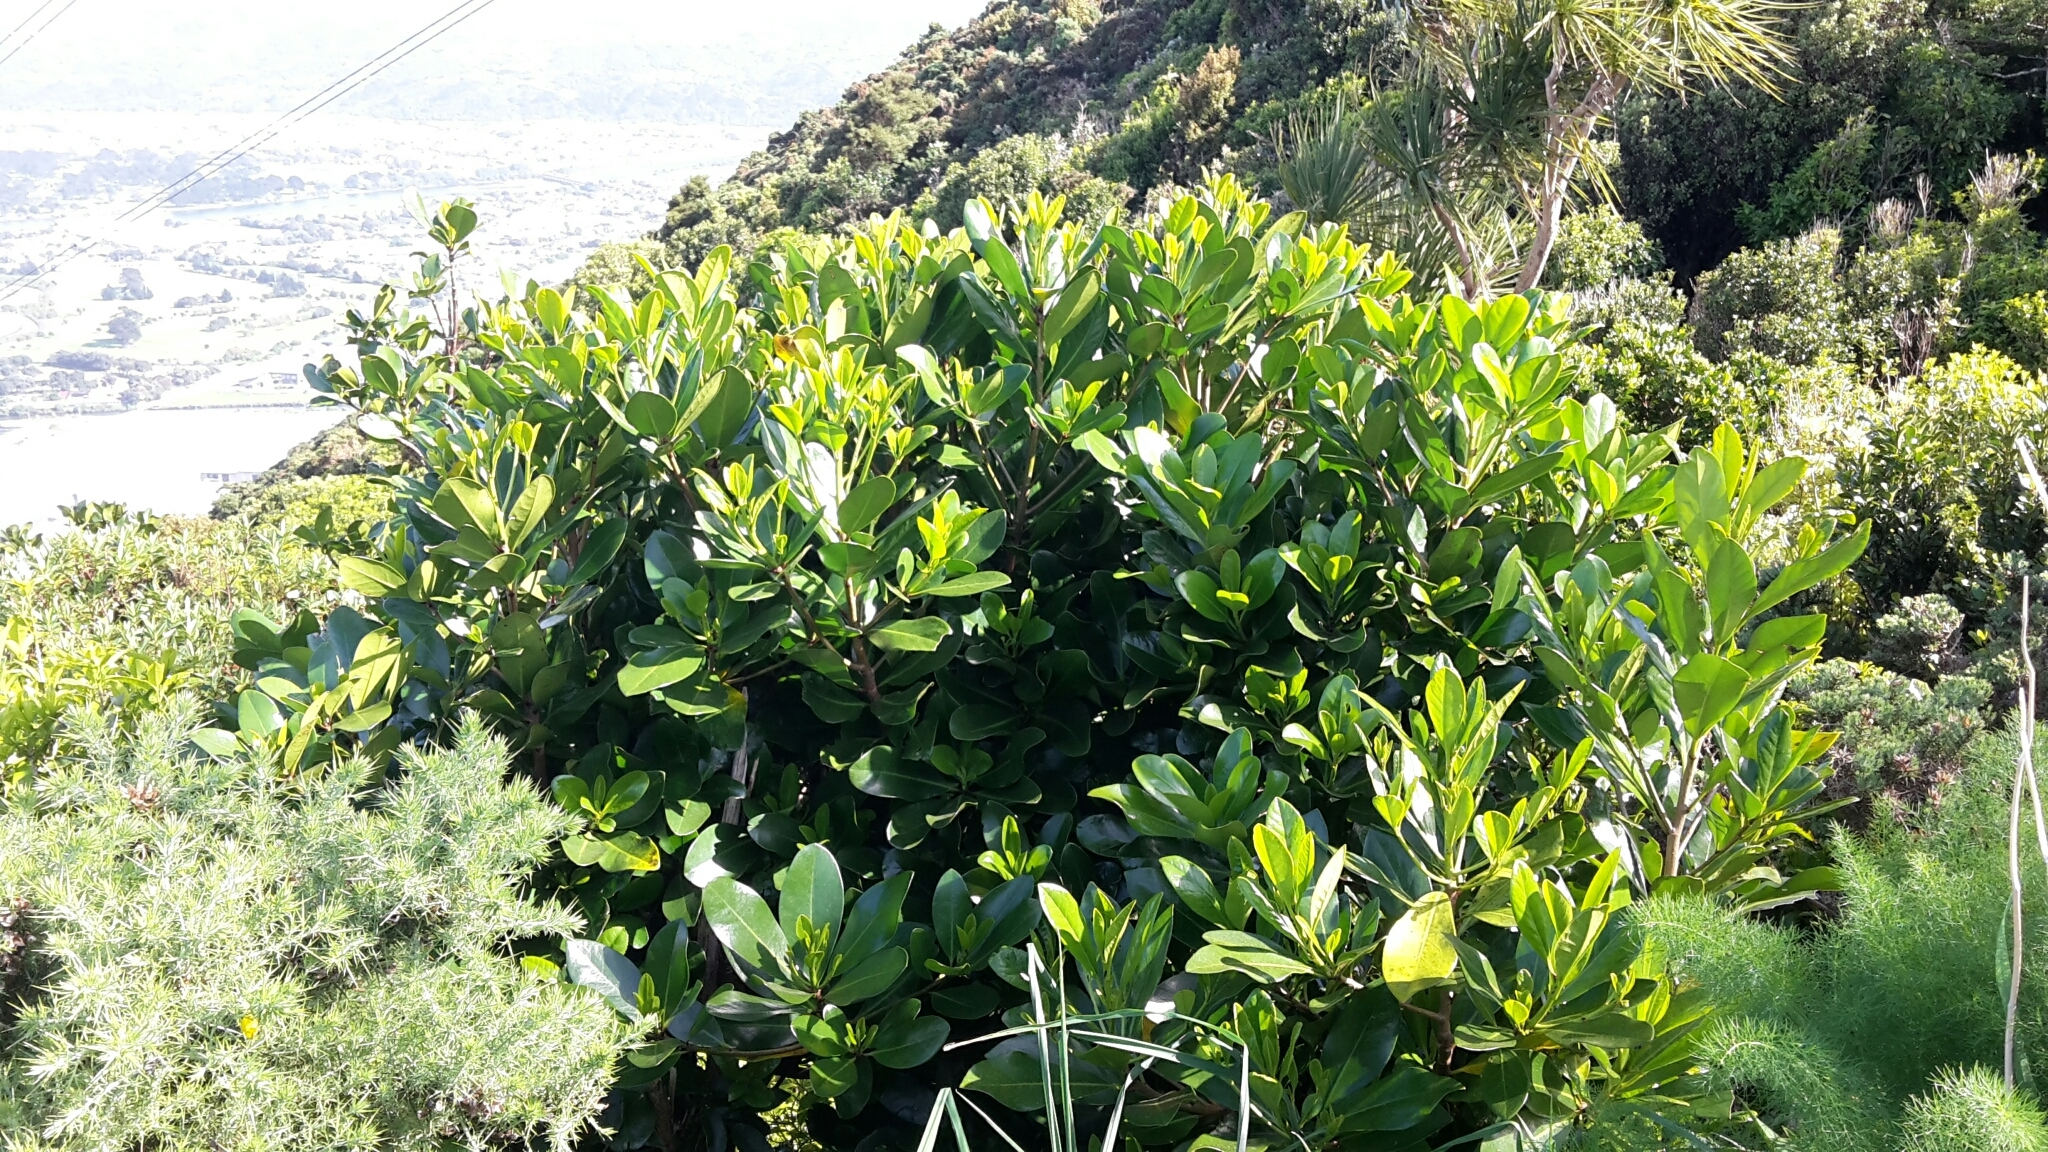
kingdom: Plantae
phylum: Tracheophyta
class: Magnoliopsida
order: Cucurbitales
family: Corynocarpaceae
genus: Corynocarpus
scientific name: Corynocarpus laevigatus
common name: New zealand laurel
